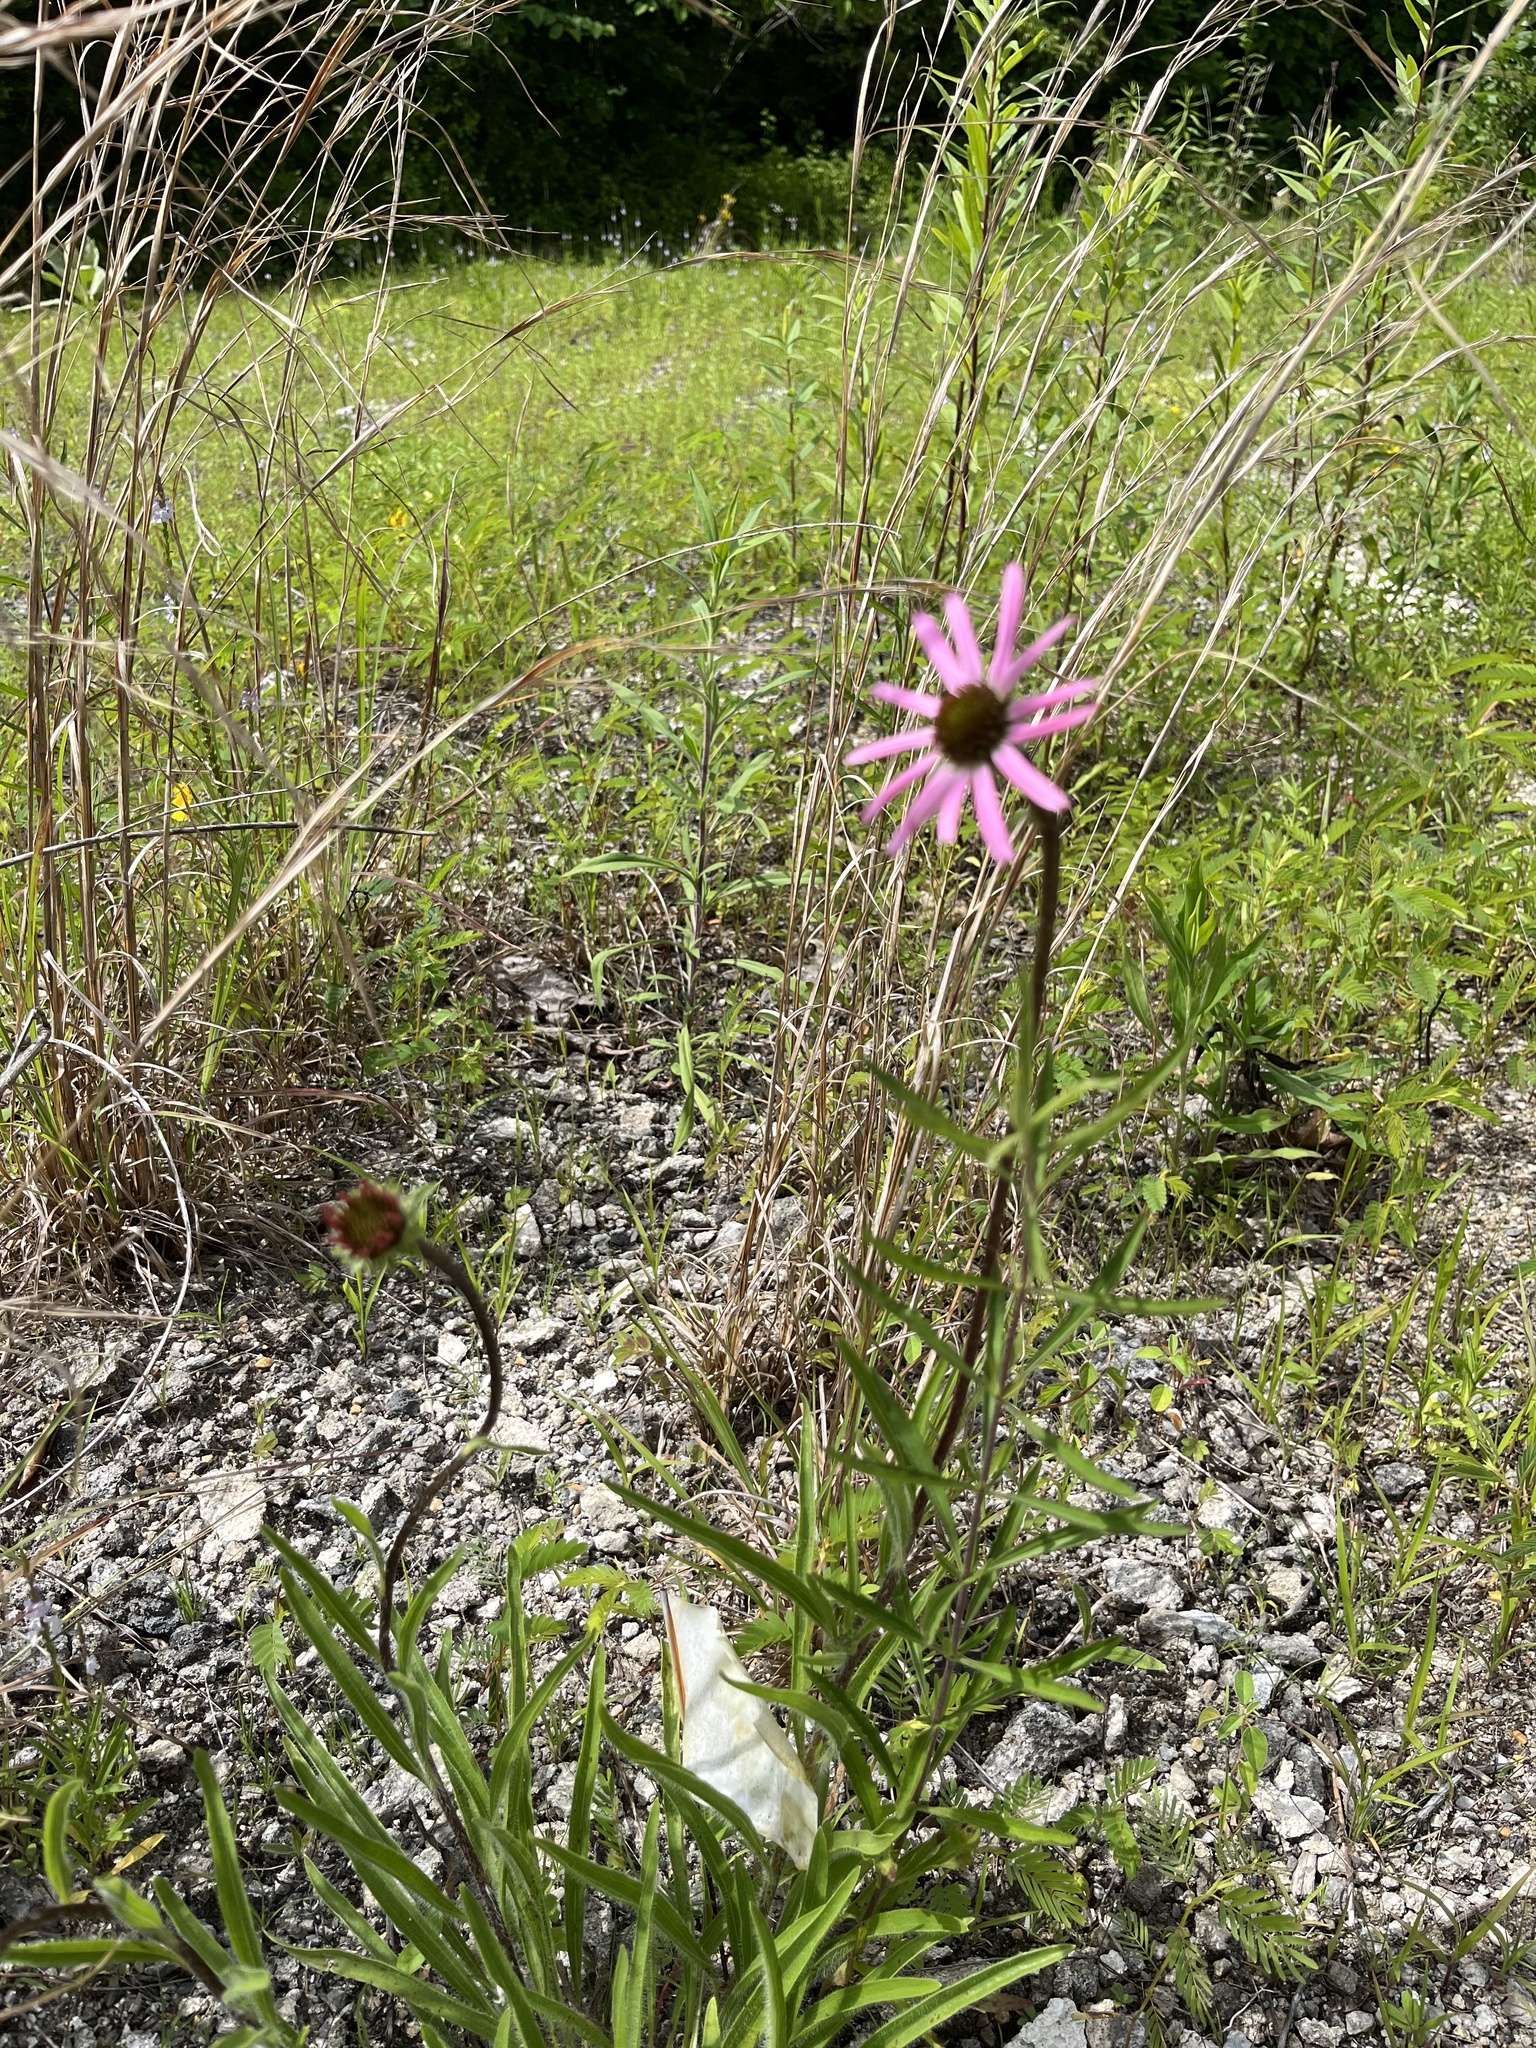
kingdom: Plantae
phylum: Tracheophyta
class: Magnoliopsida
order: Asterales
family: Asteraceae
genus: Echinacea
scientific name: Echinacea tennesseensis
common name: Tennessee purple-coneflower
